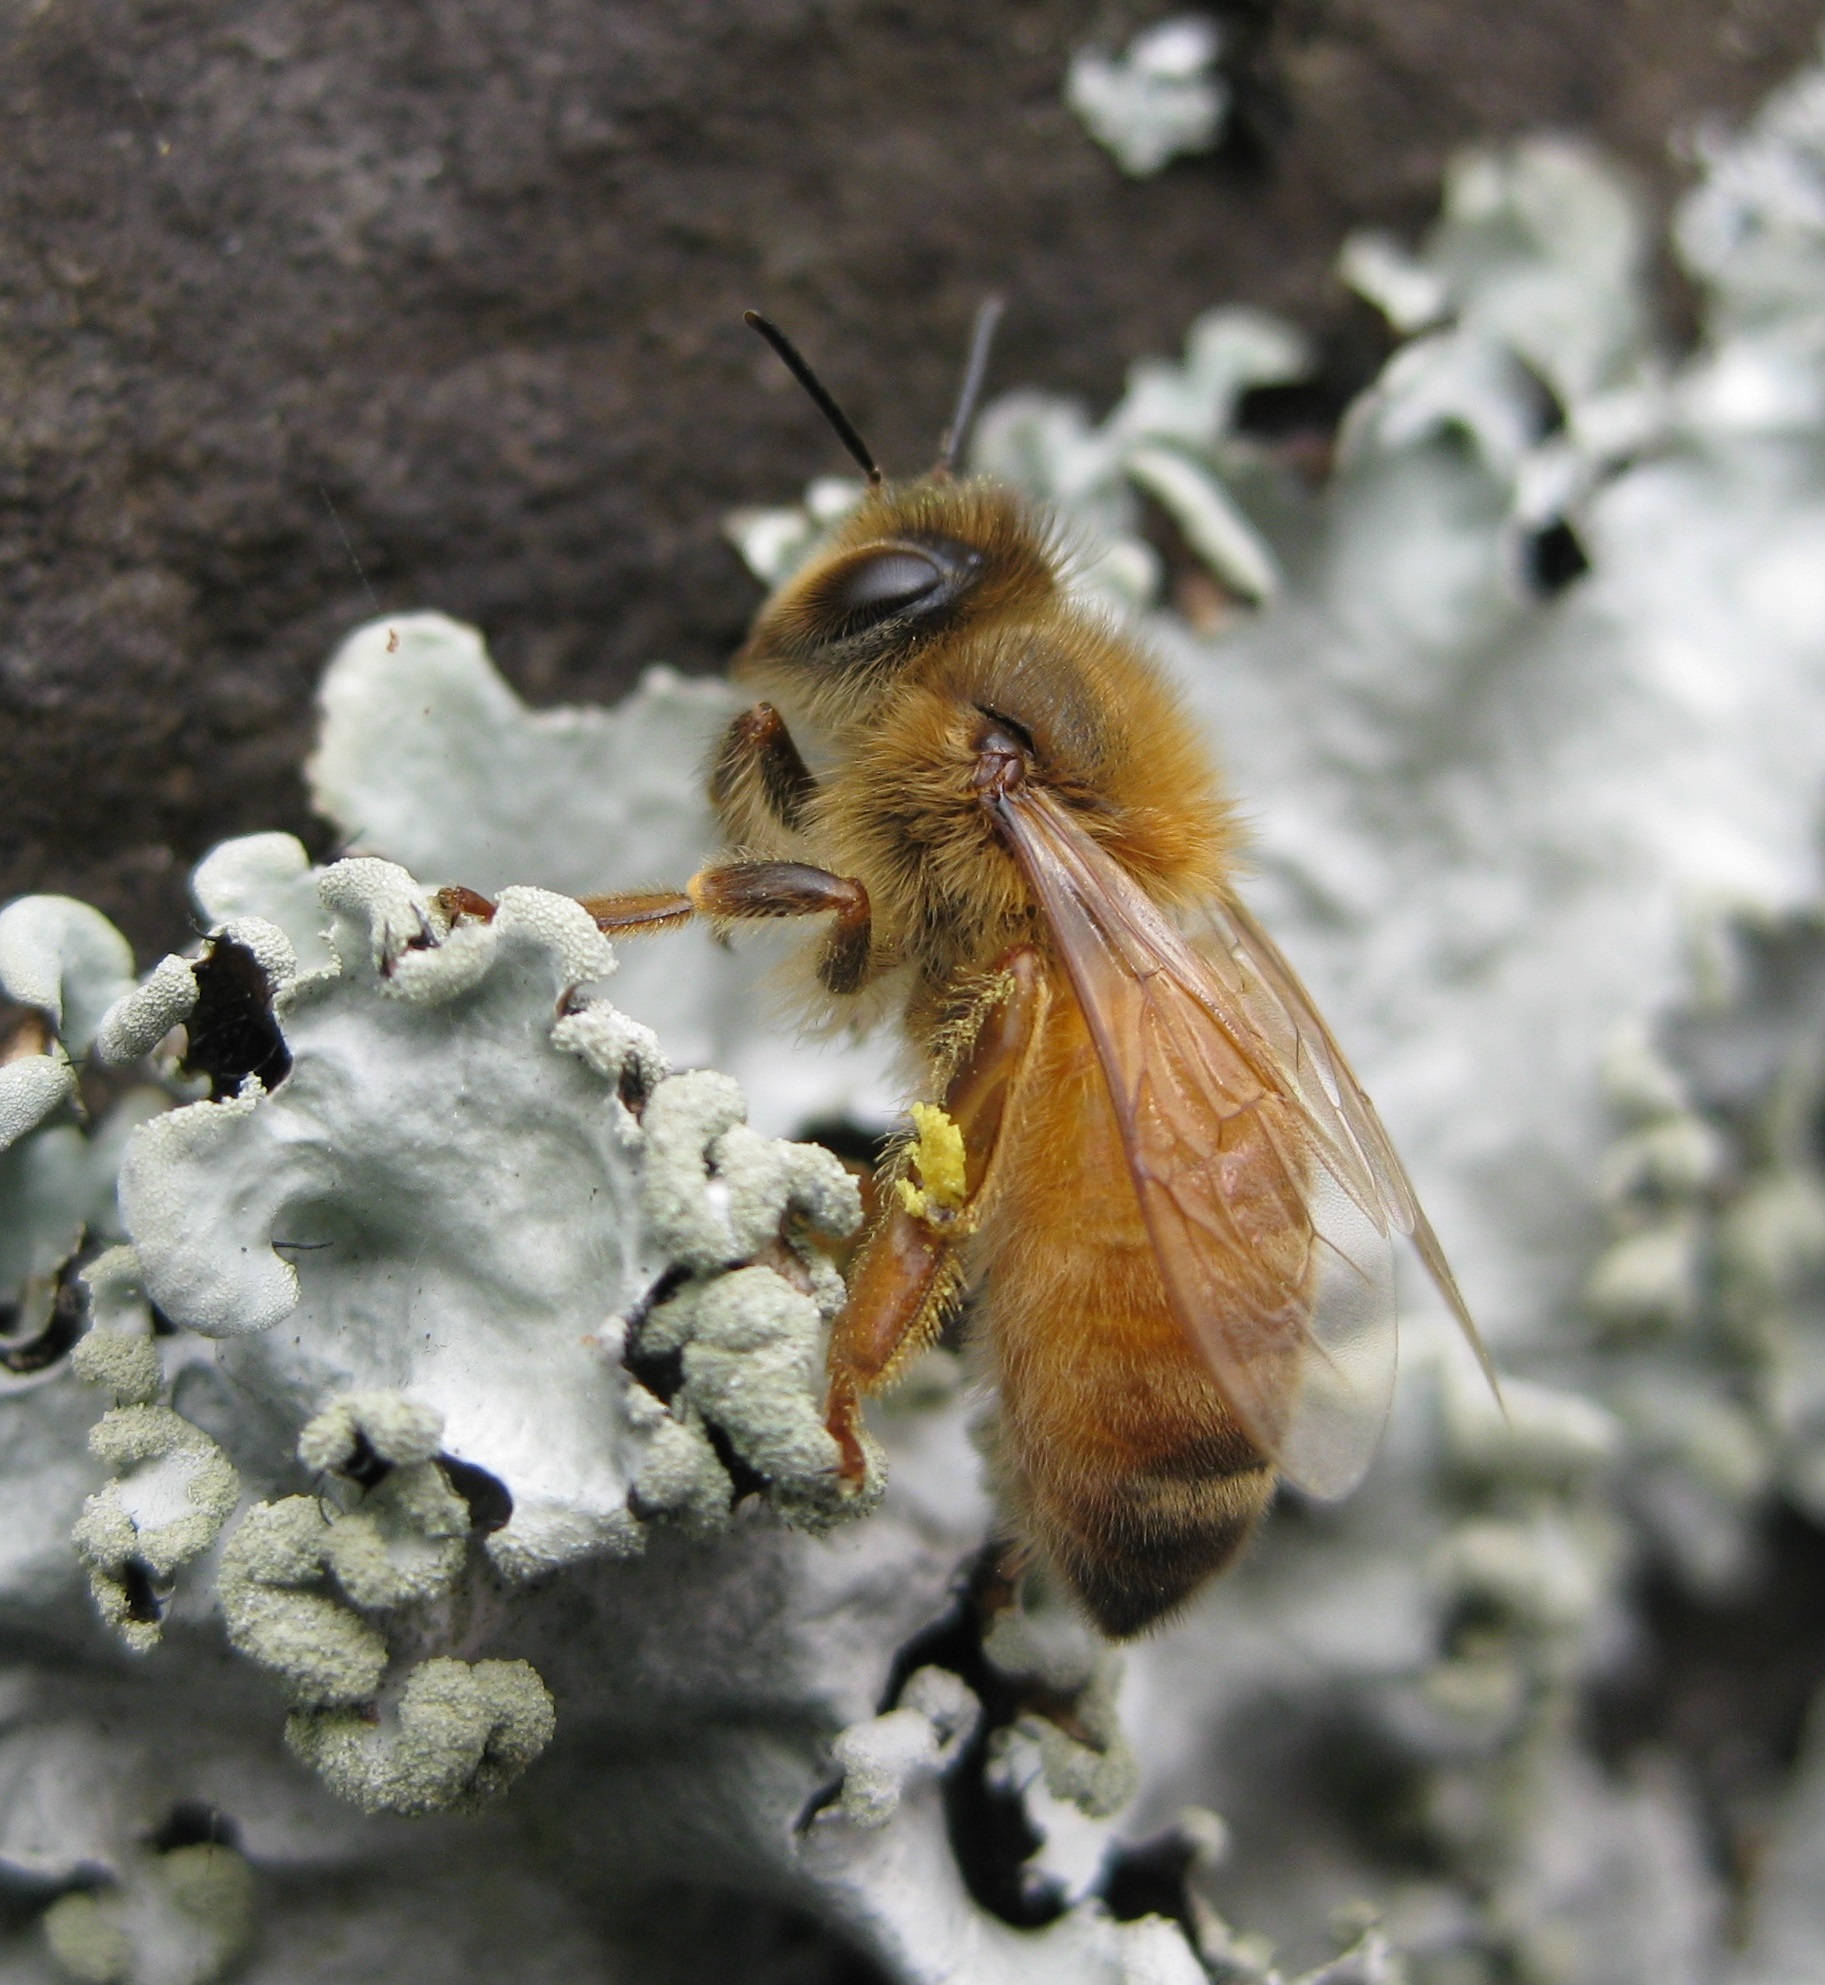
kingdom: Animalia
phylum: Arthropoda
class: Insecta
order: Hymenoptera
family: Apidae
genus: Apis
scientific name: Apis mellifera
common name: Honey bee
